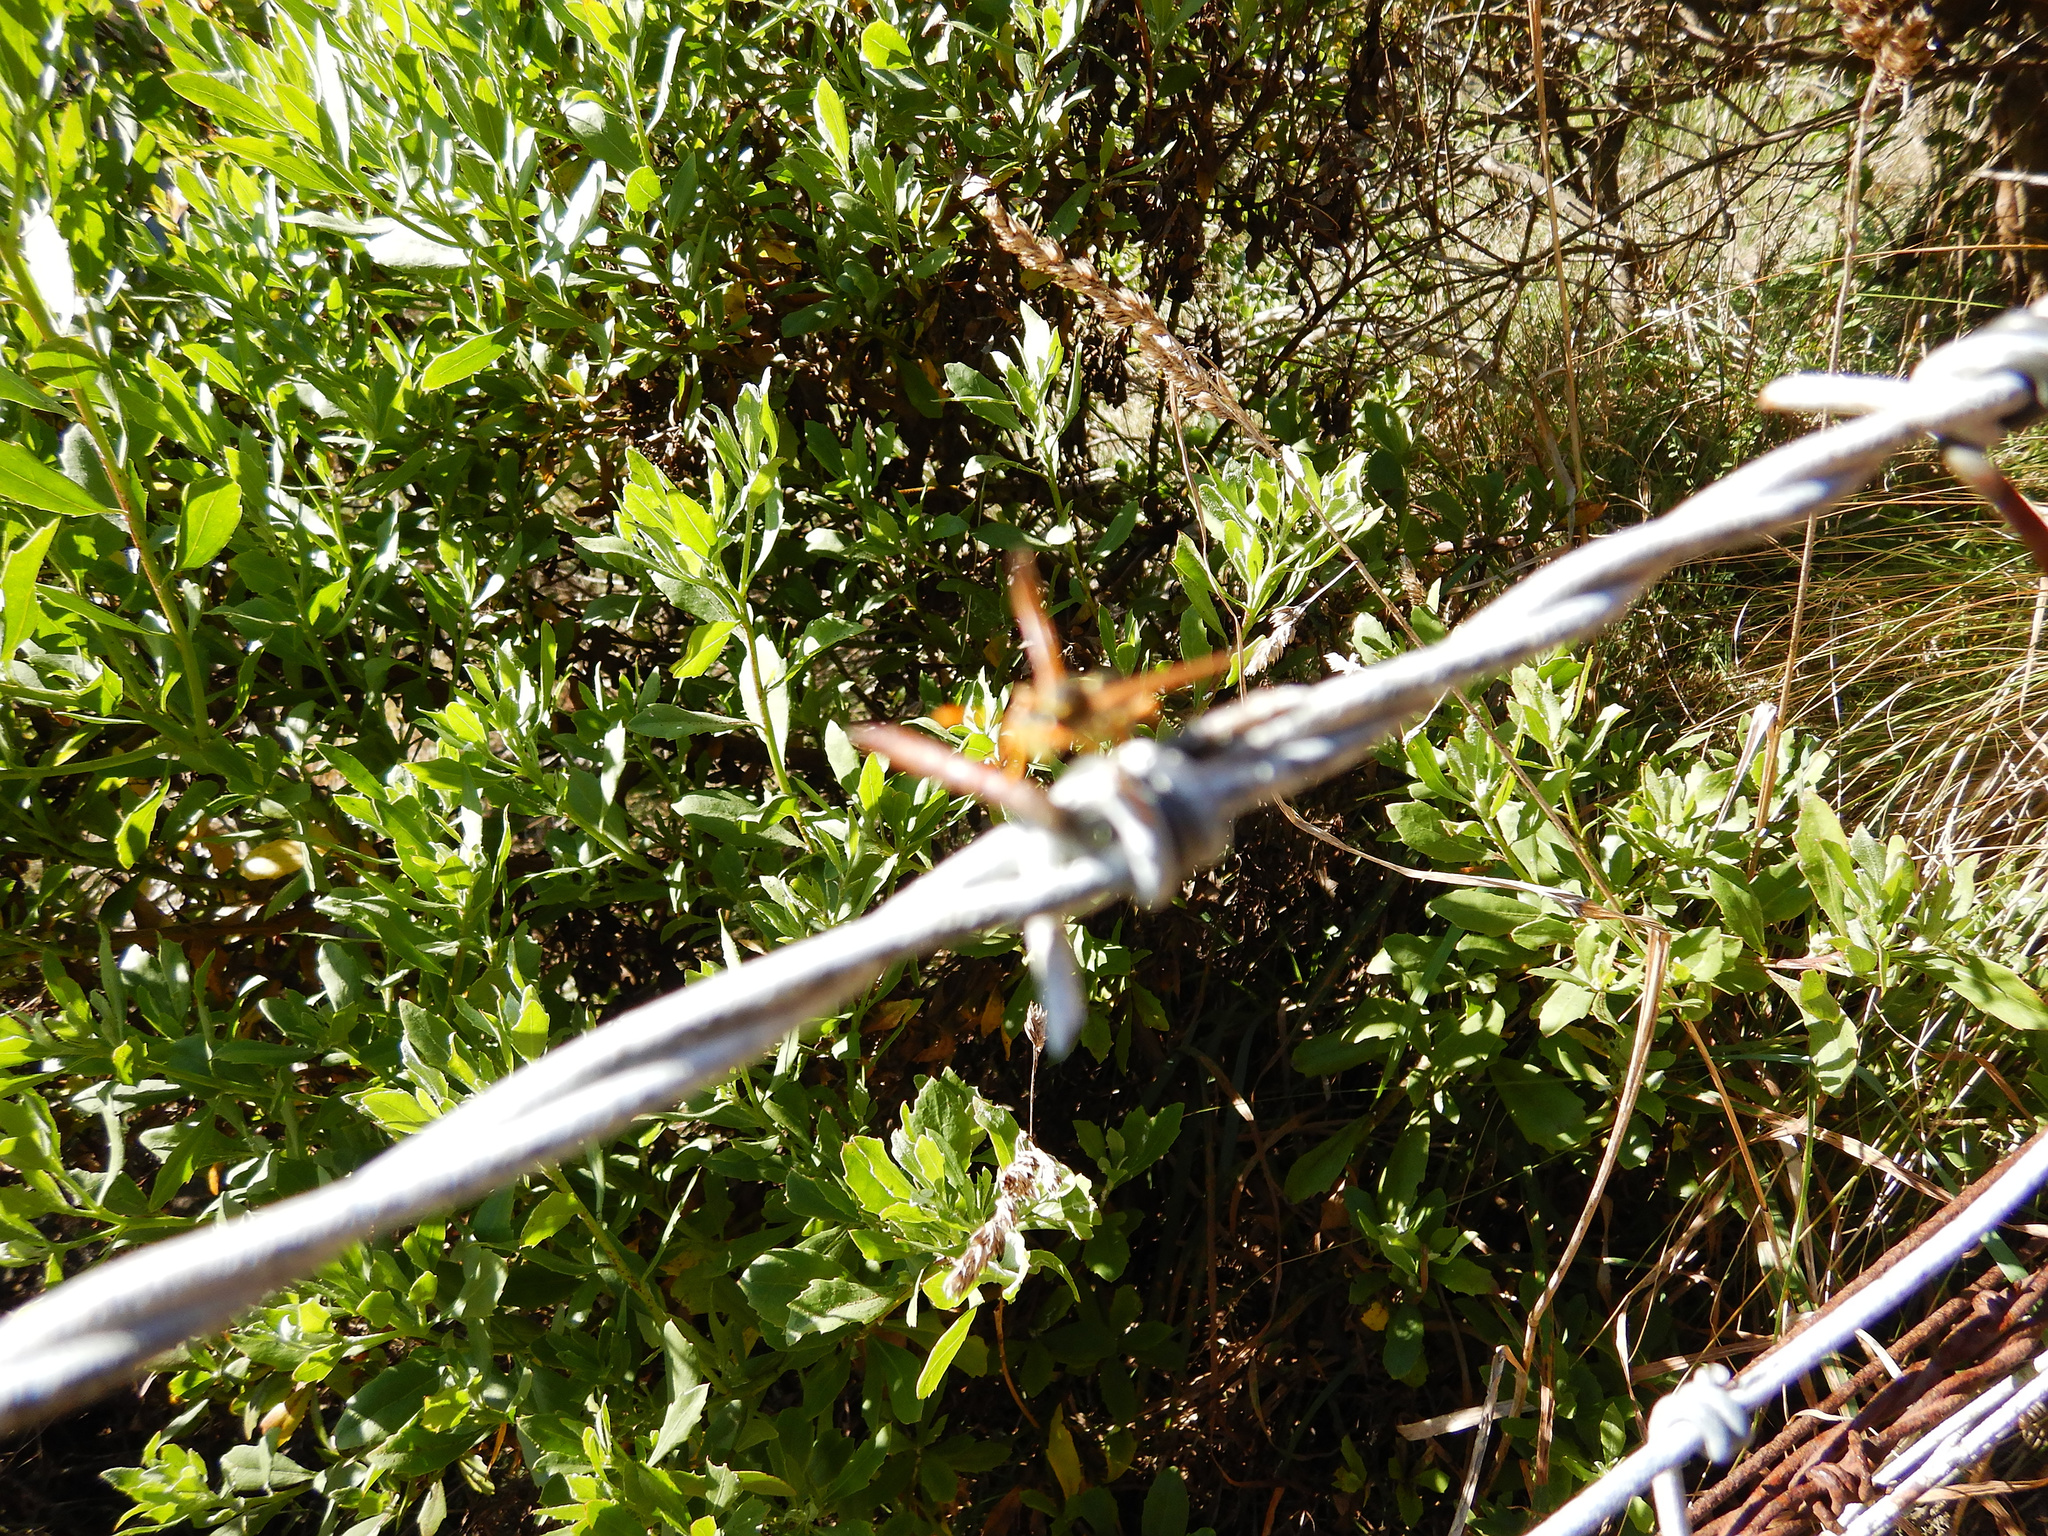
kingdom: Animalia
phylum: Arthropoda
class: Insecta
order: Hymenoptera
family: Eumenidae
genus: Polistes
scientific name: Polistes chinensis
